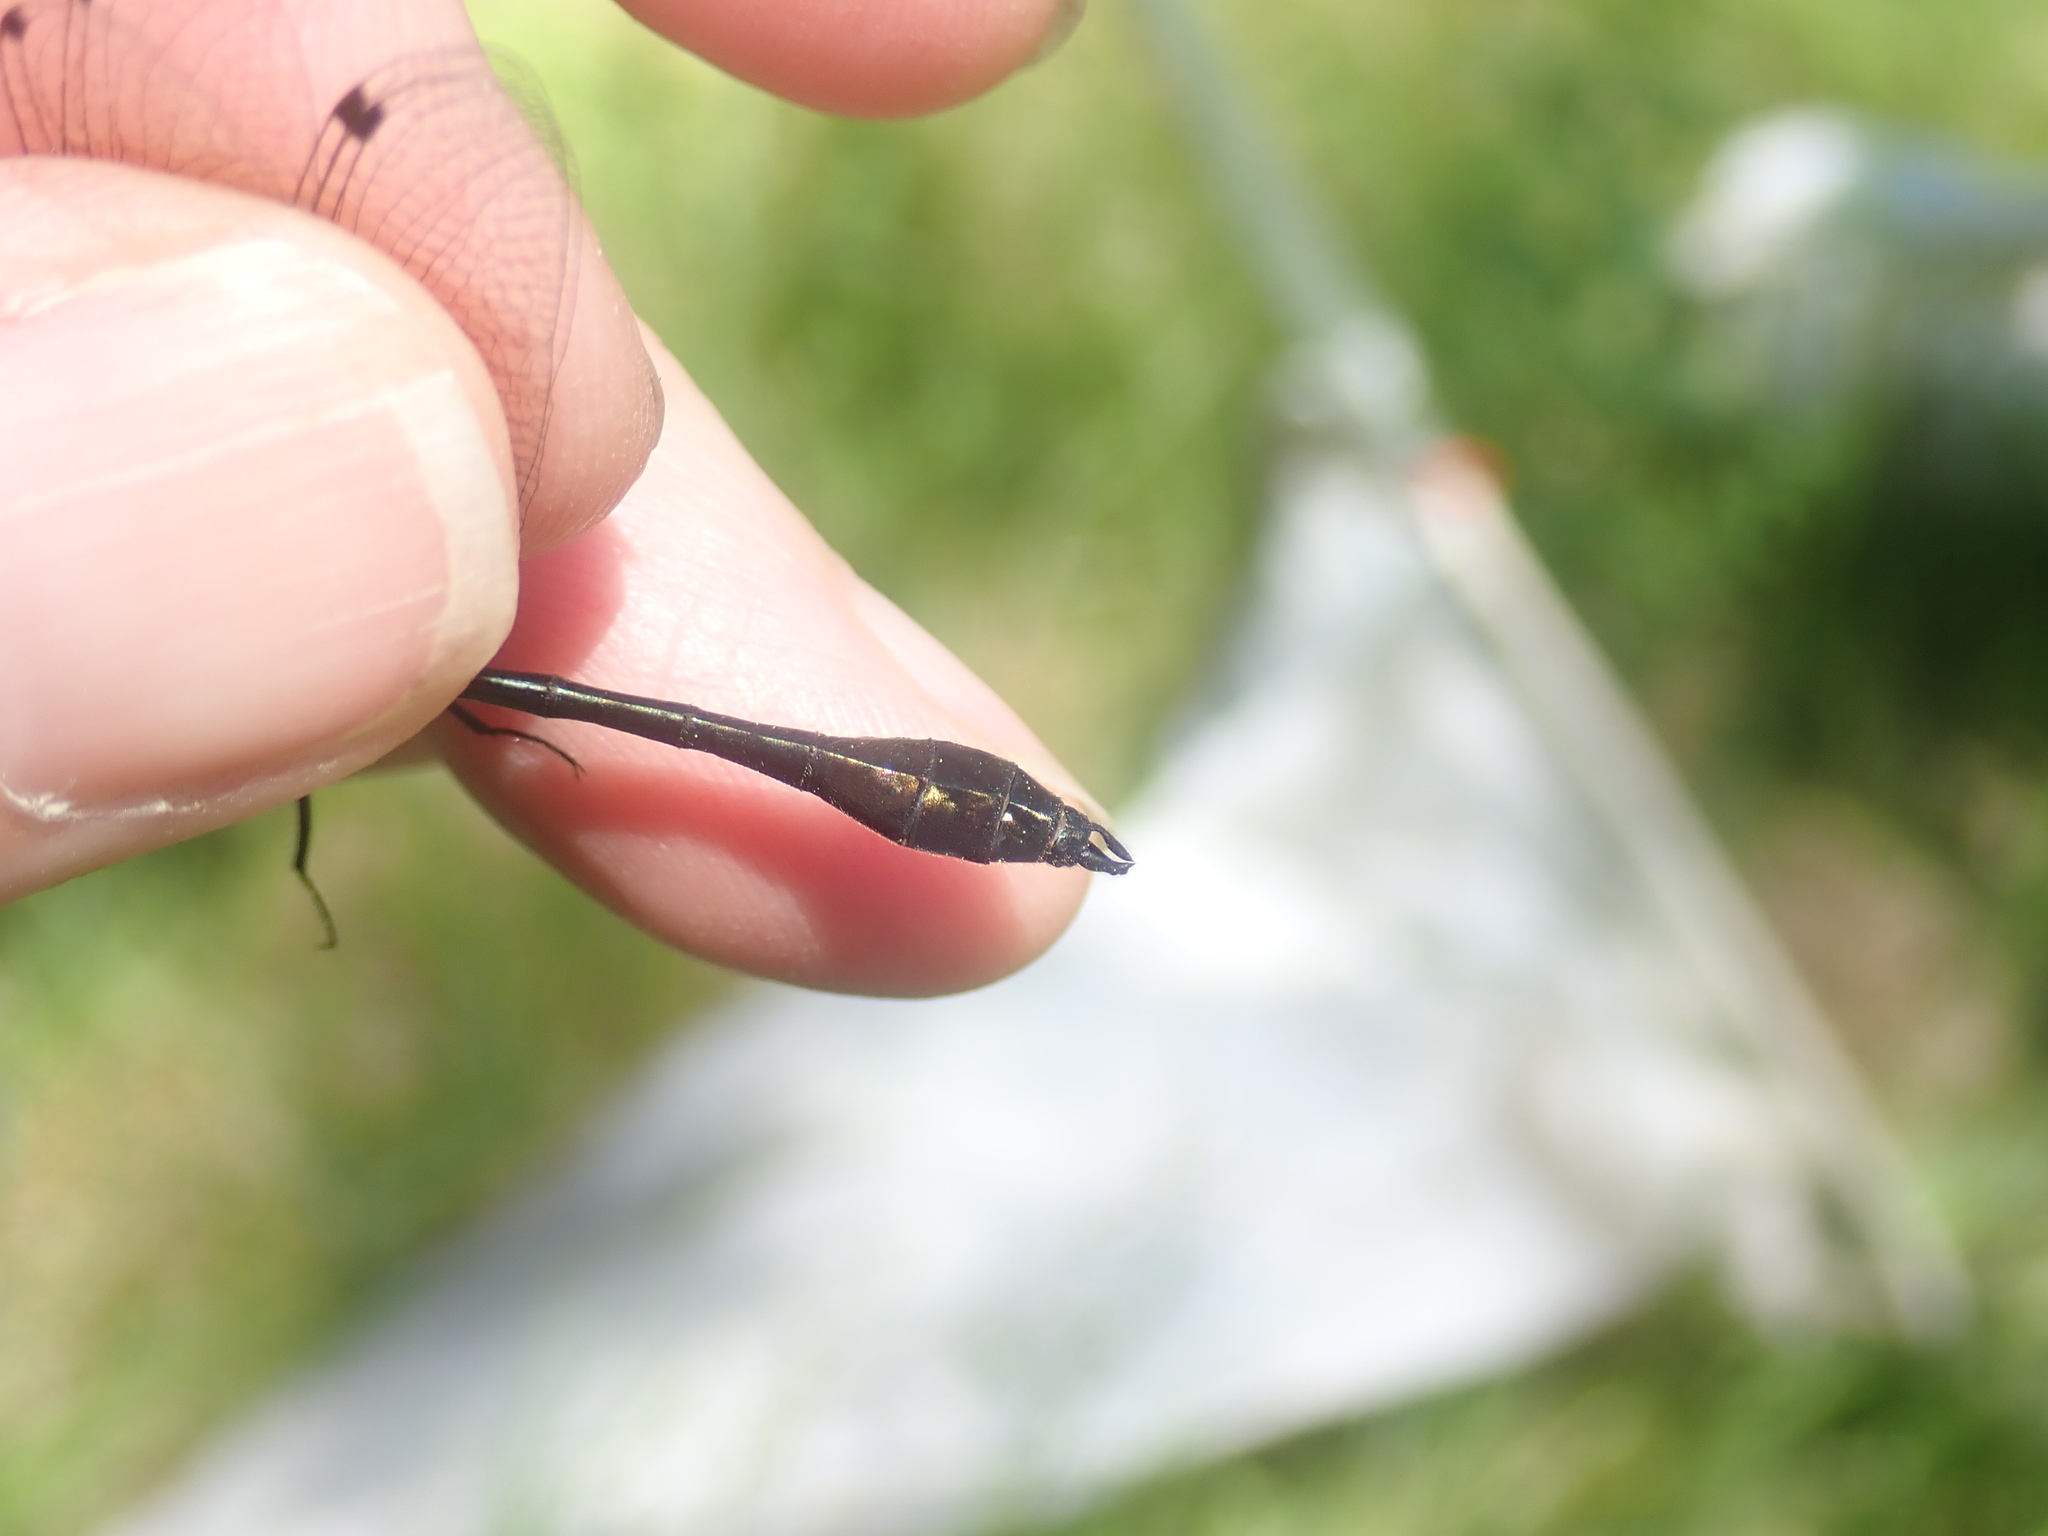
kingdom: Animalia
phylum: Arthropoda
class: Insecta
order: Odonata
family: Corduliidae
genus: Dorocordulia
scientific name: Dorocordulia libera
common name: Racket-tailed emerald
